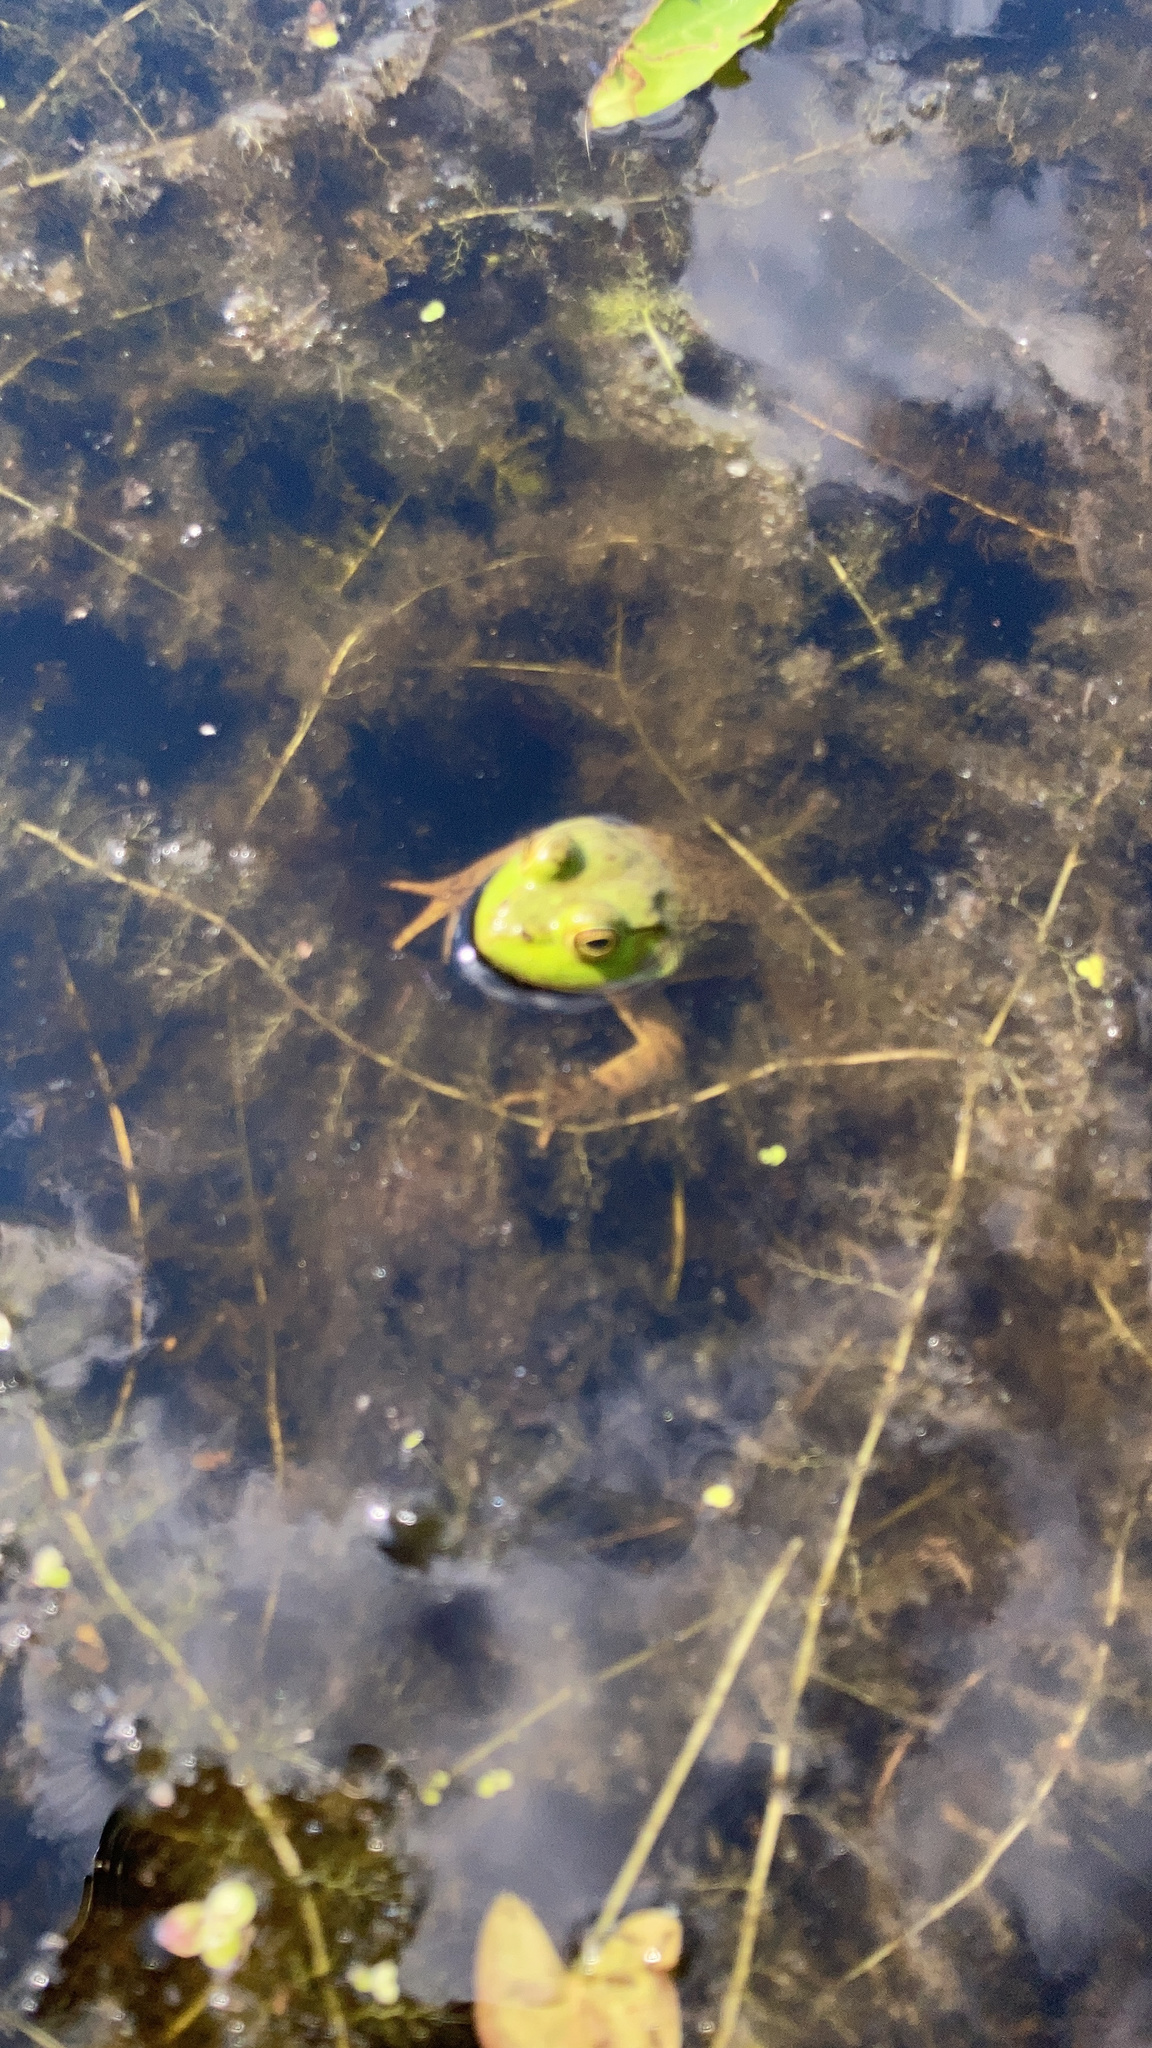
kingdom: Animalia
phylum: Chordata
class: Amphibia
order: Anura
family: Ranidae
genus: Lithobates
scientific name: Lithobates catesbeianus
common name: American bullfrog
